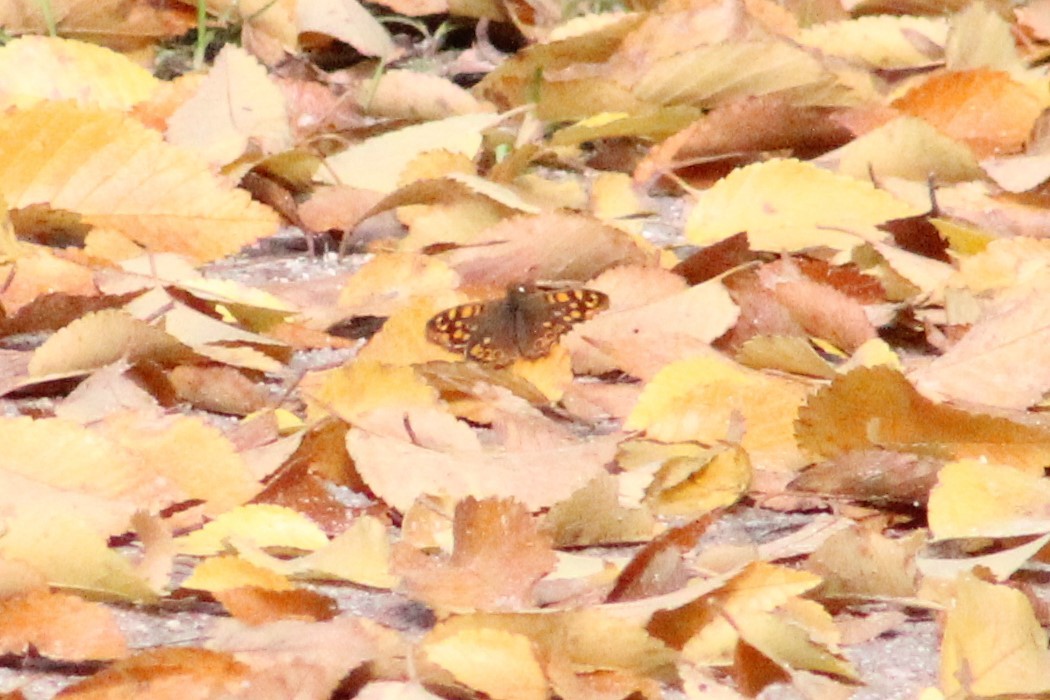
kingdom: Animalia
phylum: Arthropoda
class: Insecta
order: Lepidoptera
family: Nymphalidae
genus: Pararge
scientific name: Pararge aegeria
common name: Speckled wood
